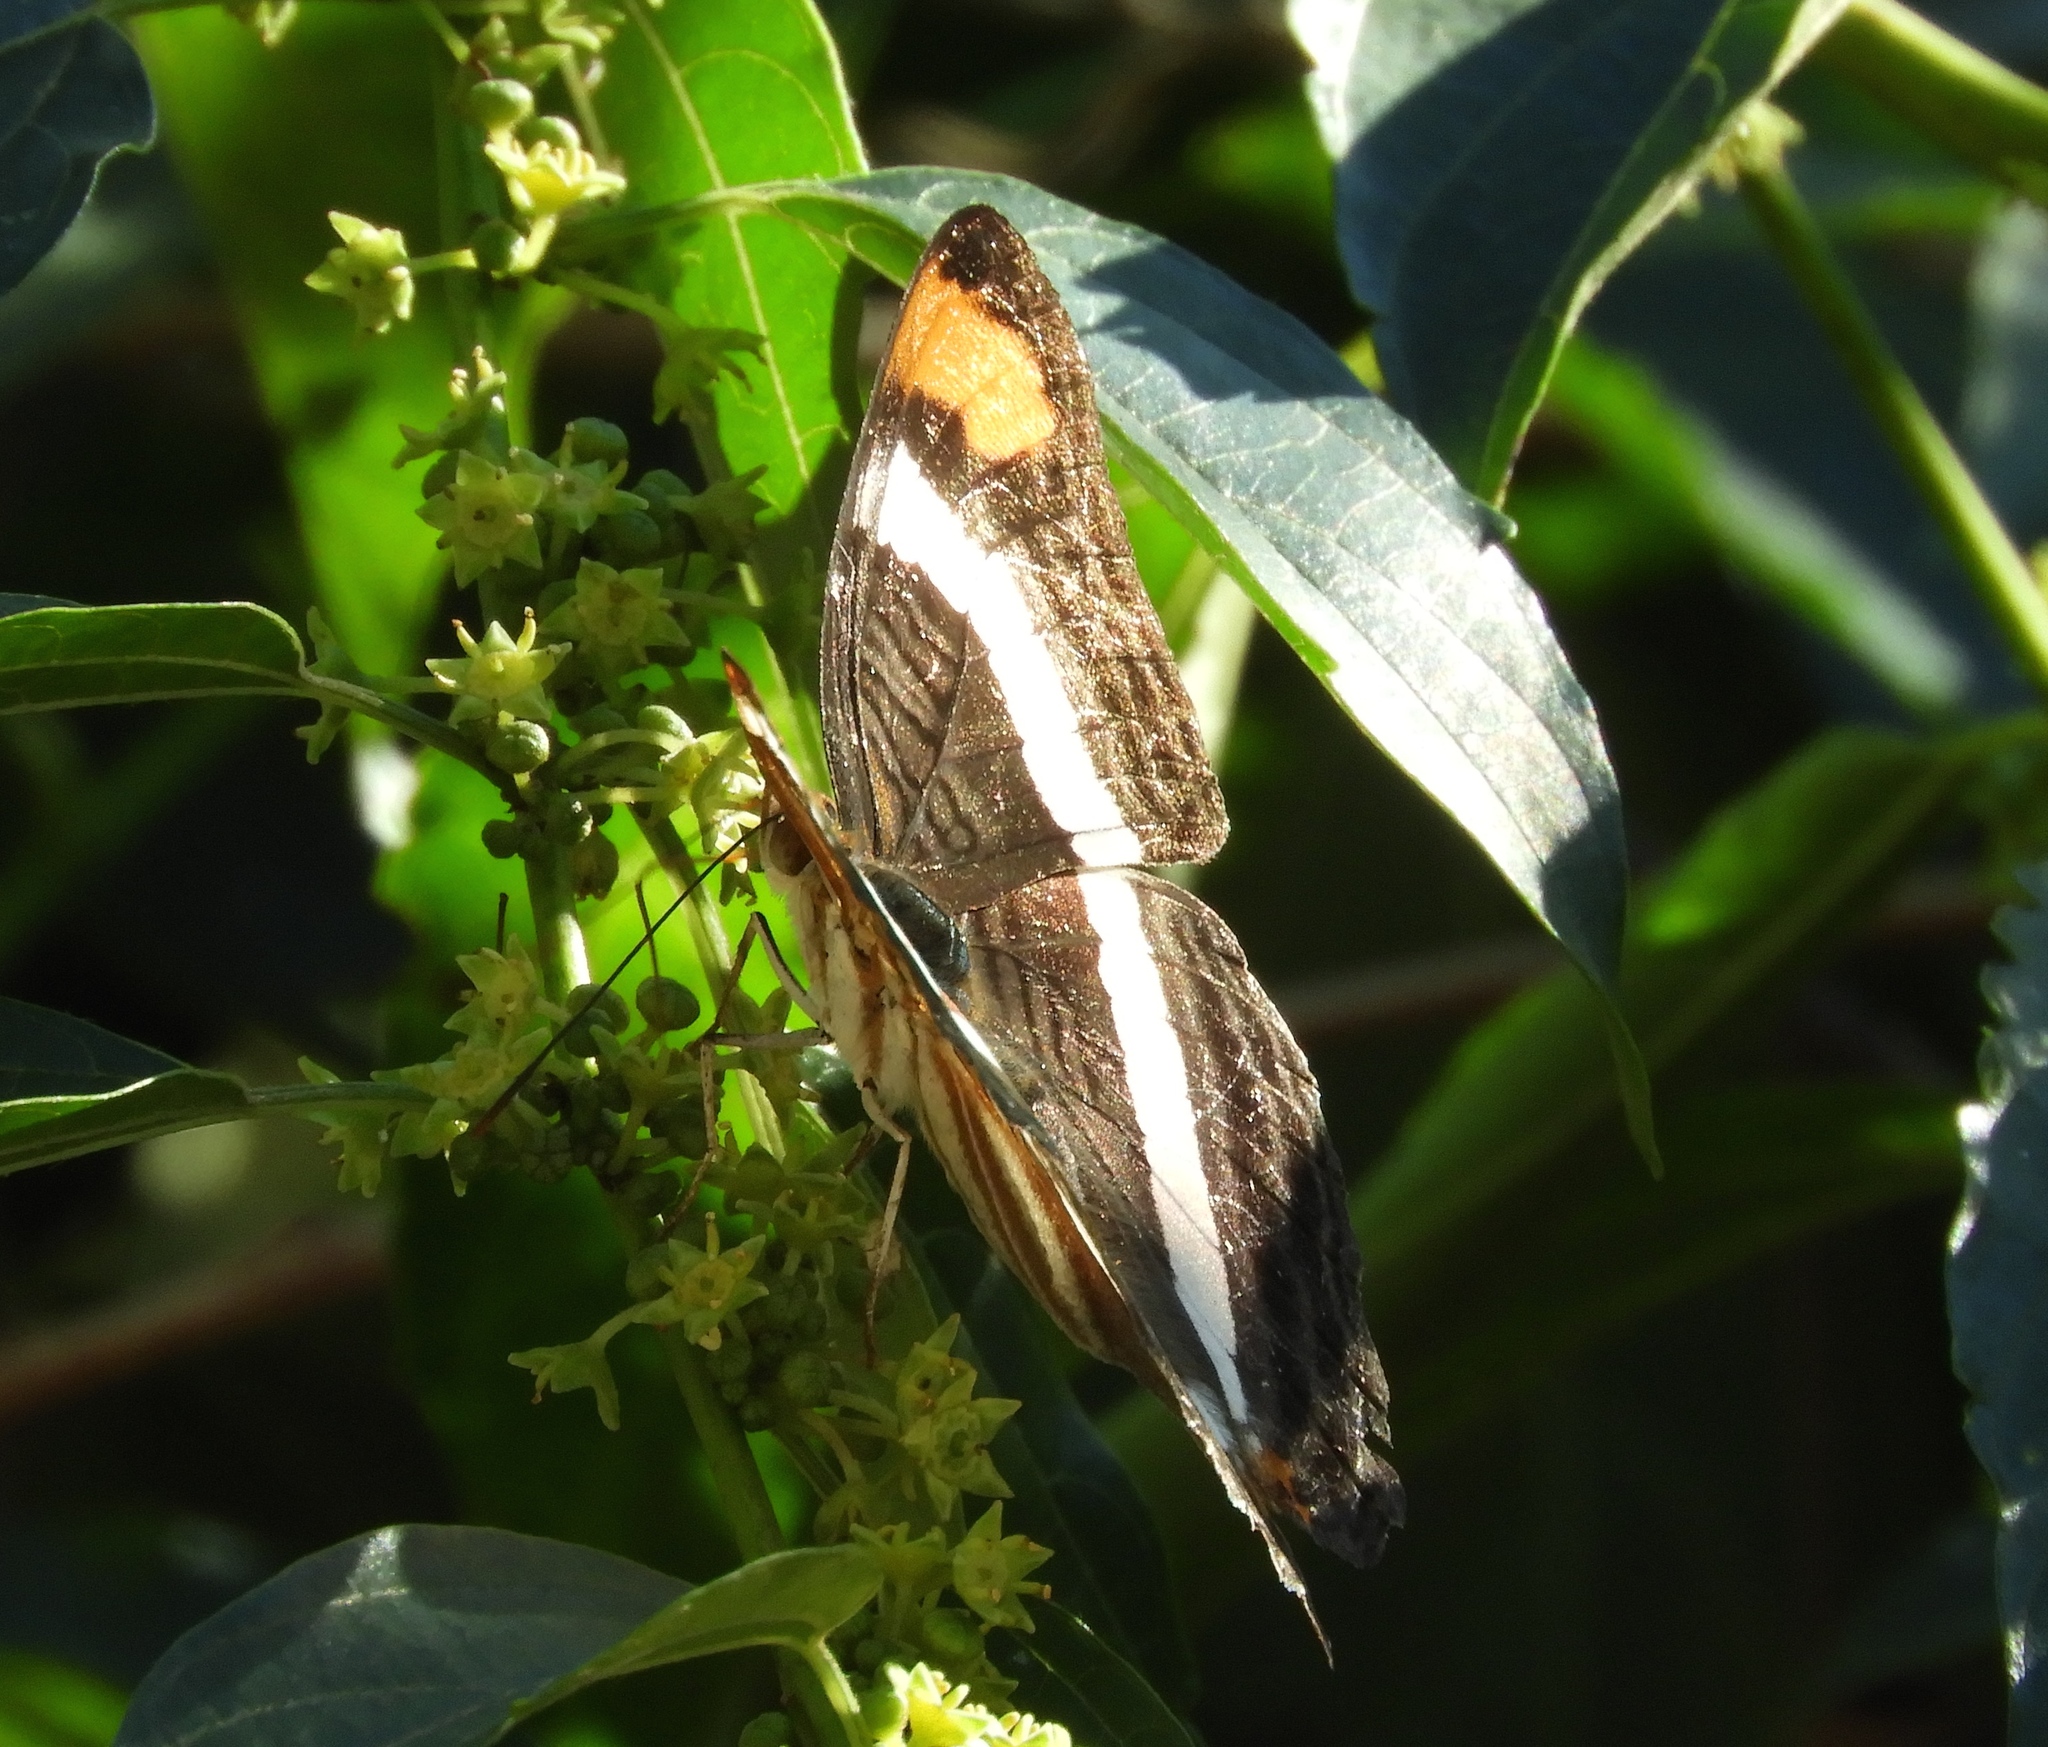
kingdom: Animalia
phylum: Arthropoda
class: Insecta
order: Lepidoptera
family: Nymphalidae
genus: Limenitis
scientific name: Limenitis fessonia
